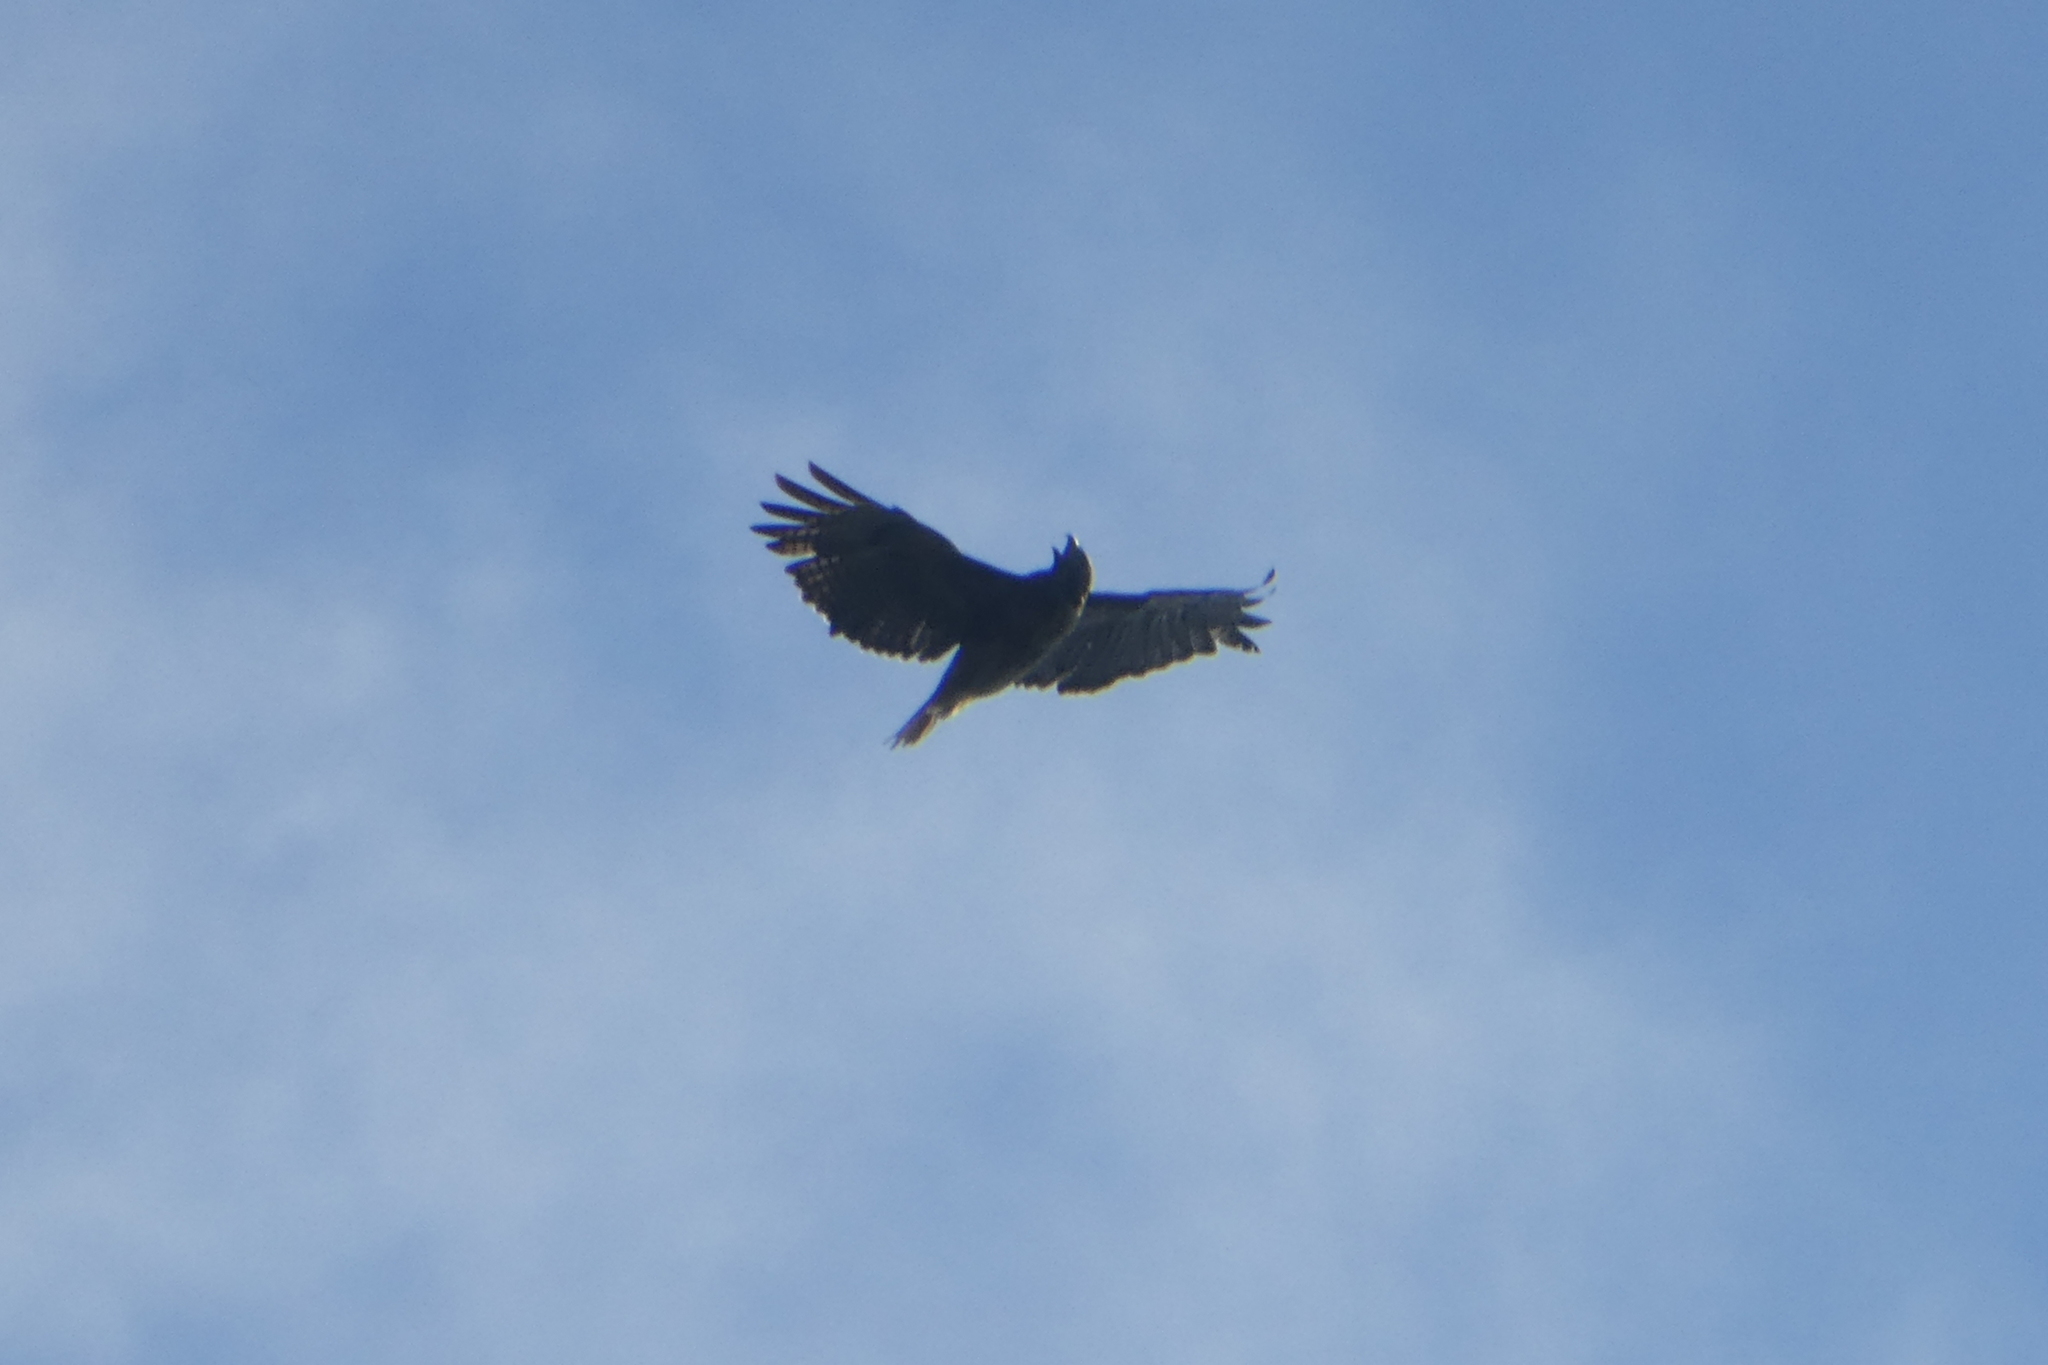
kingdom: Animalia
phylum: Chordata
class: Aves
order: Accipitriformes
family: Accipitridae
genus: Buteo
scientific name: Buteo jamaicensis
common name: Red-tailed hawk
